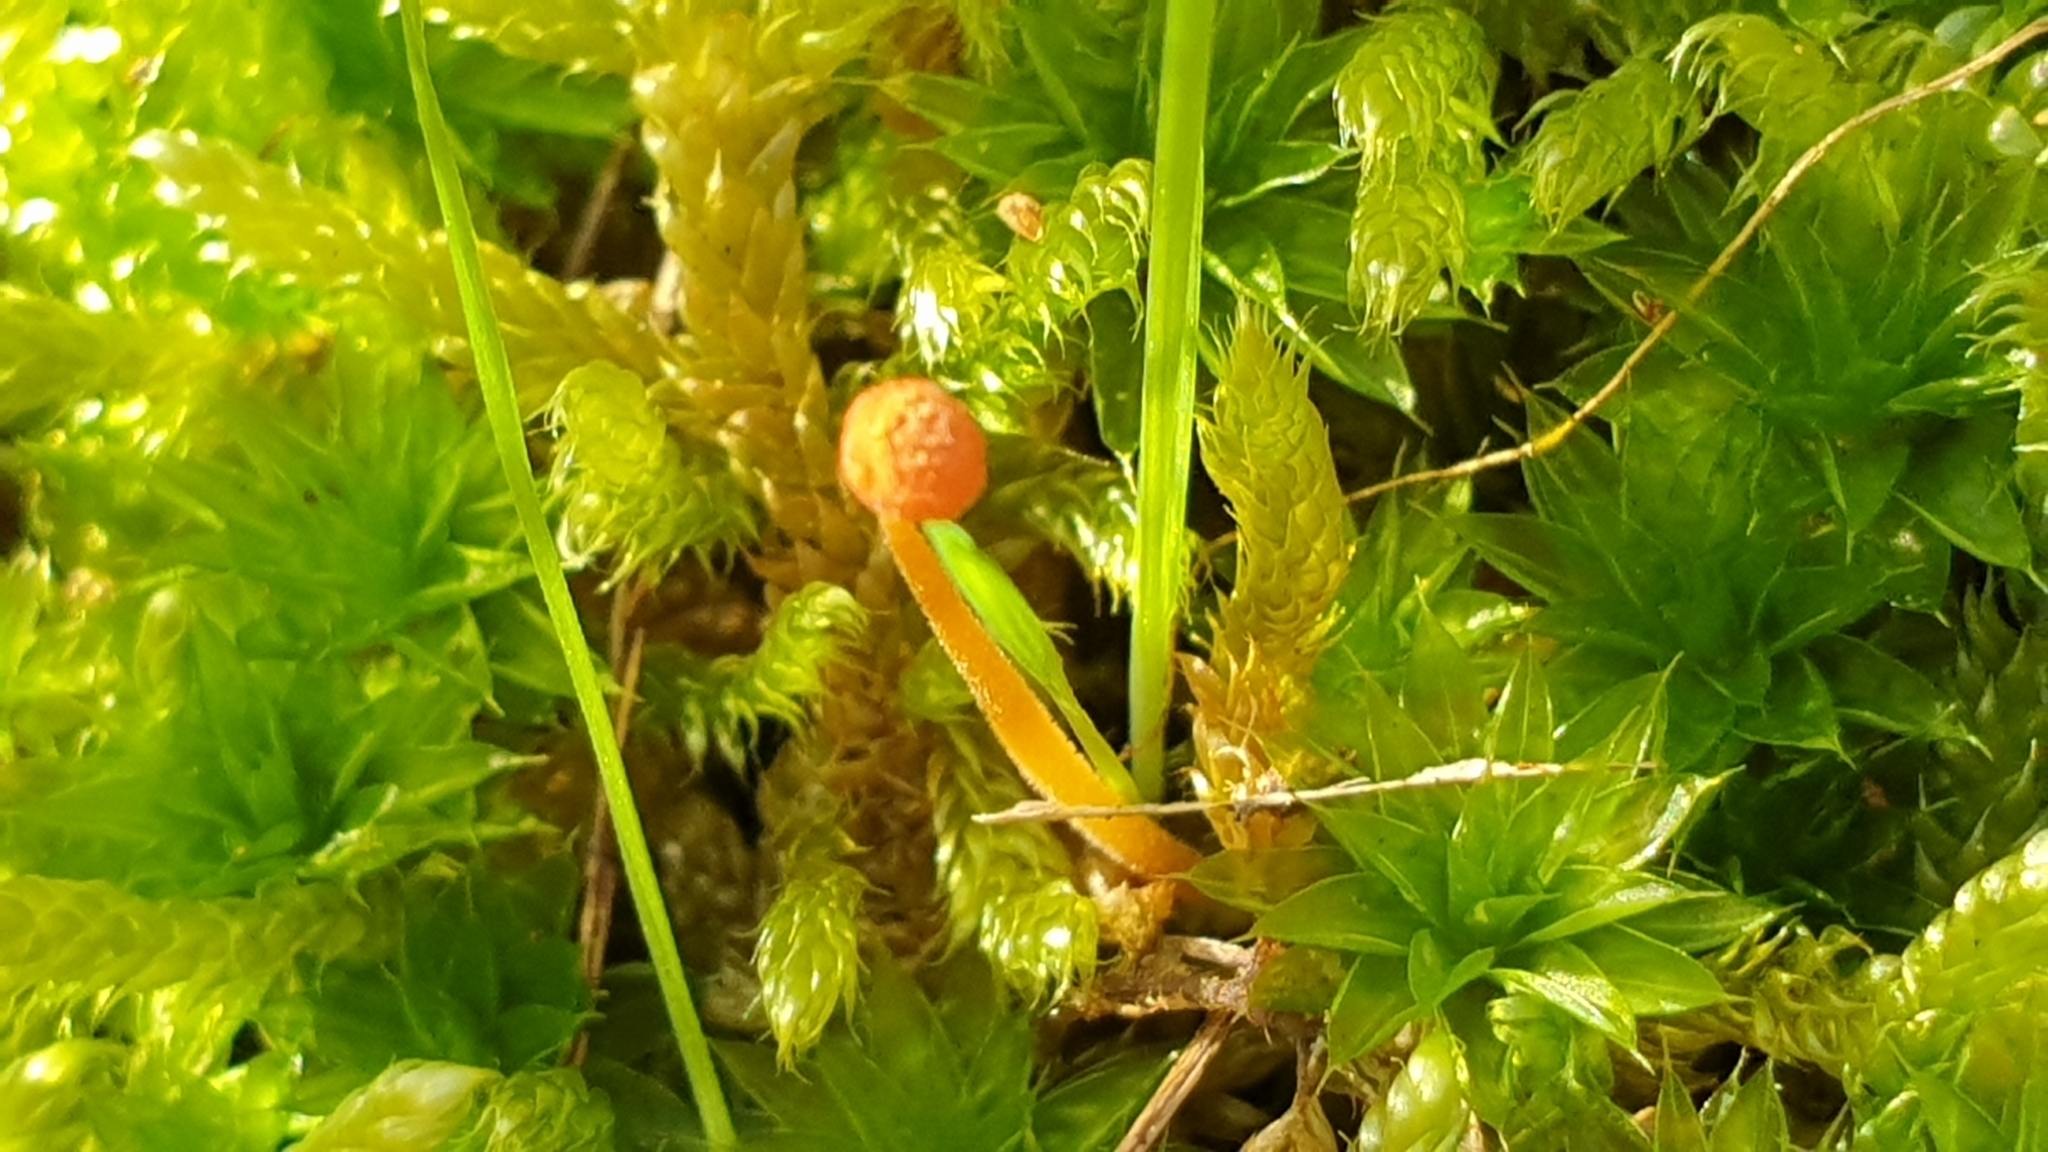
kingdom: Fungi
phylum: Basidiomycota
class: Agaricomycetes
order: Hymenochaetales
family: Rickenellaceae
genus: Rickenella
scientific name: Rickenella fibula
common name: Orange mosscap
